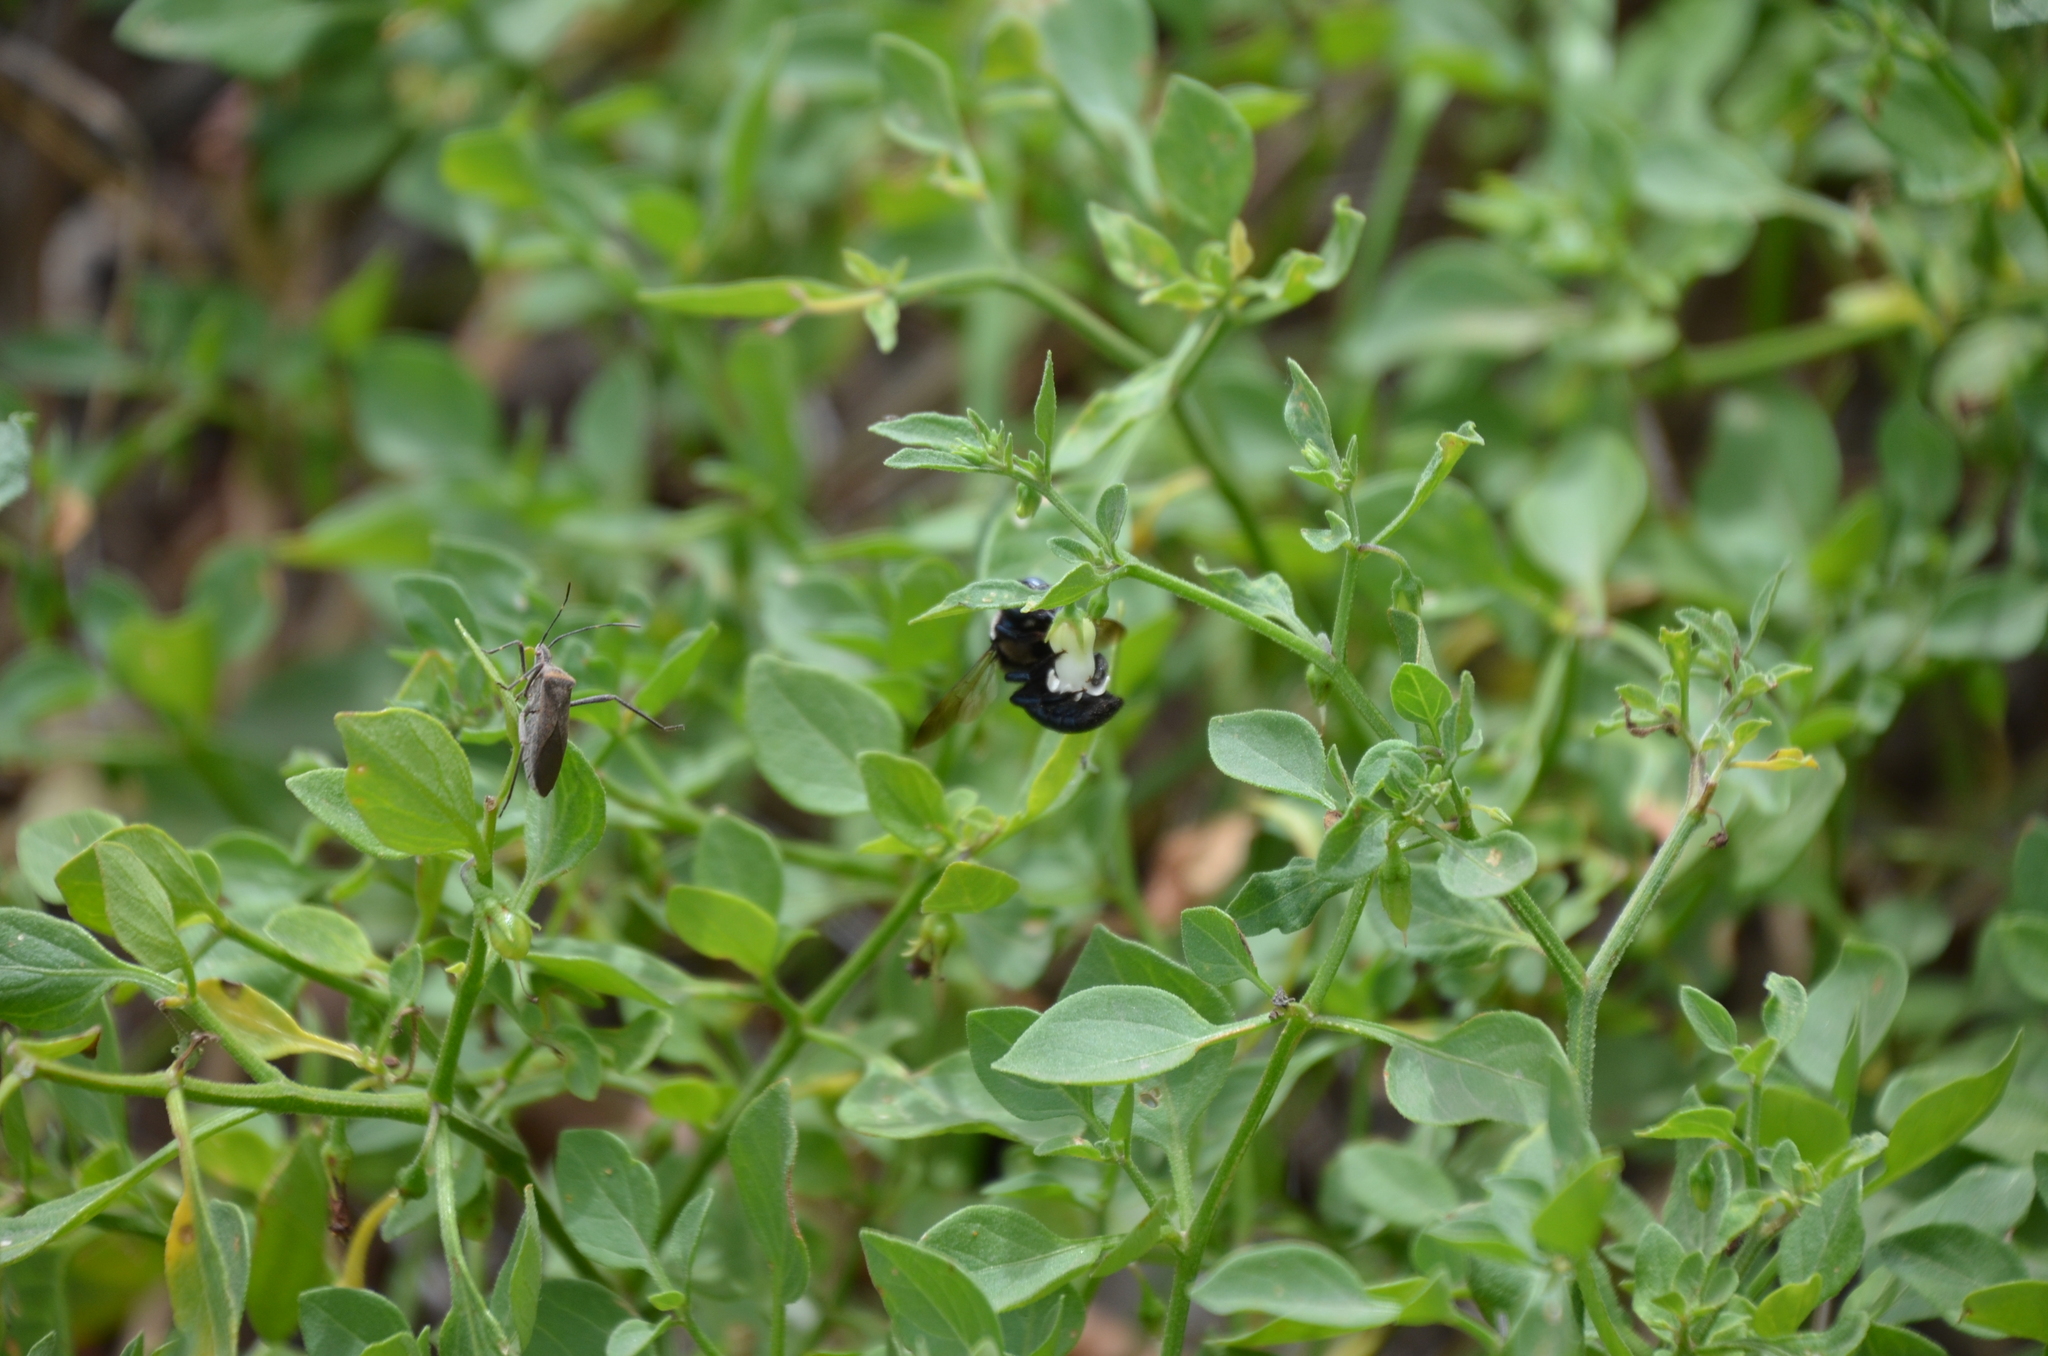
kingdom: Animalia
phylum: Arthropoda
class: Insecta
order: Hemiptera
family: Coreidae
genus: Phthiacnemia
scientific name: Phthiacnemia picta
